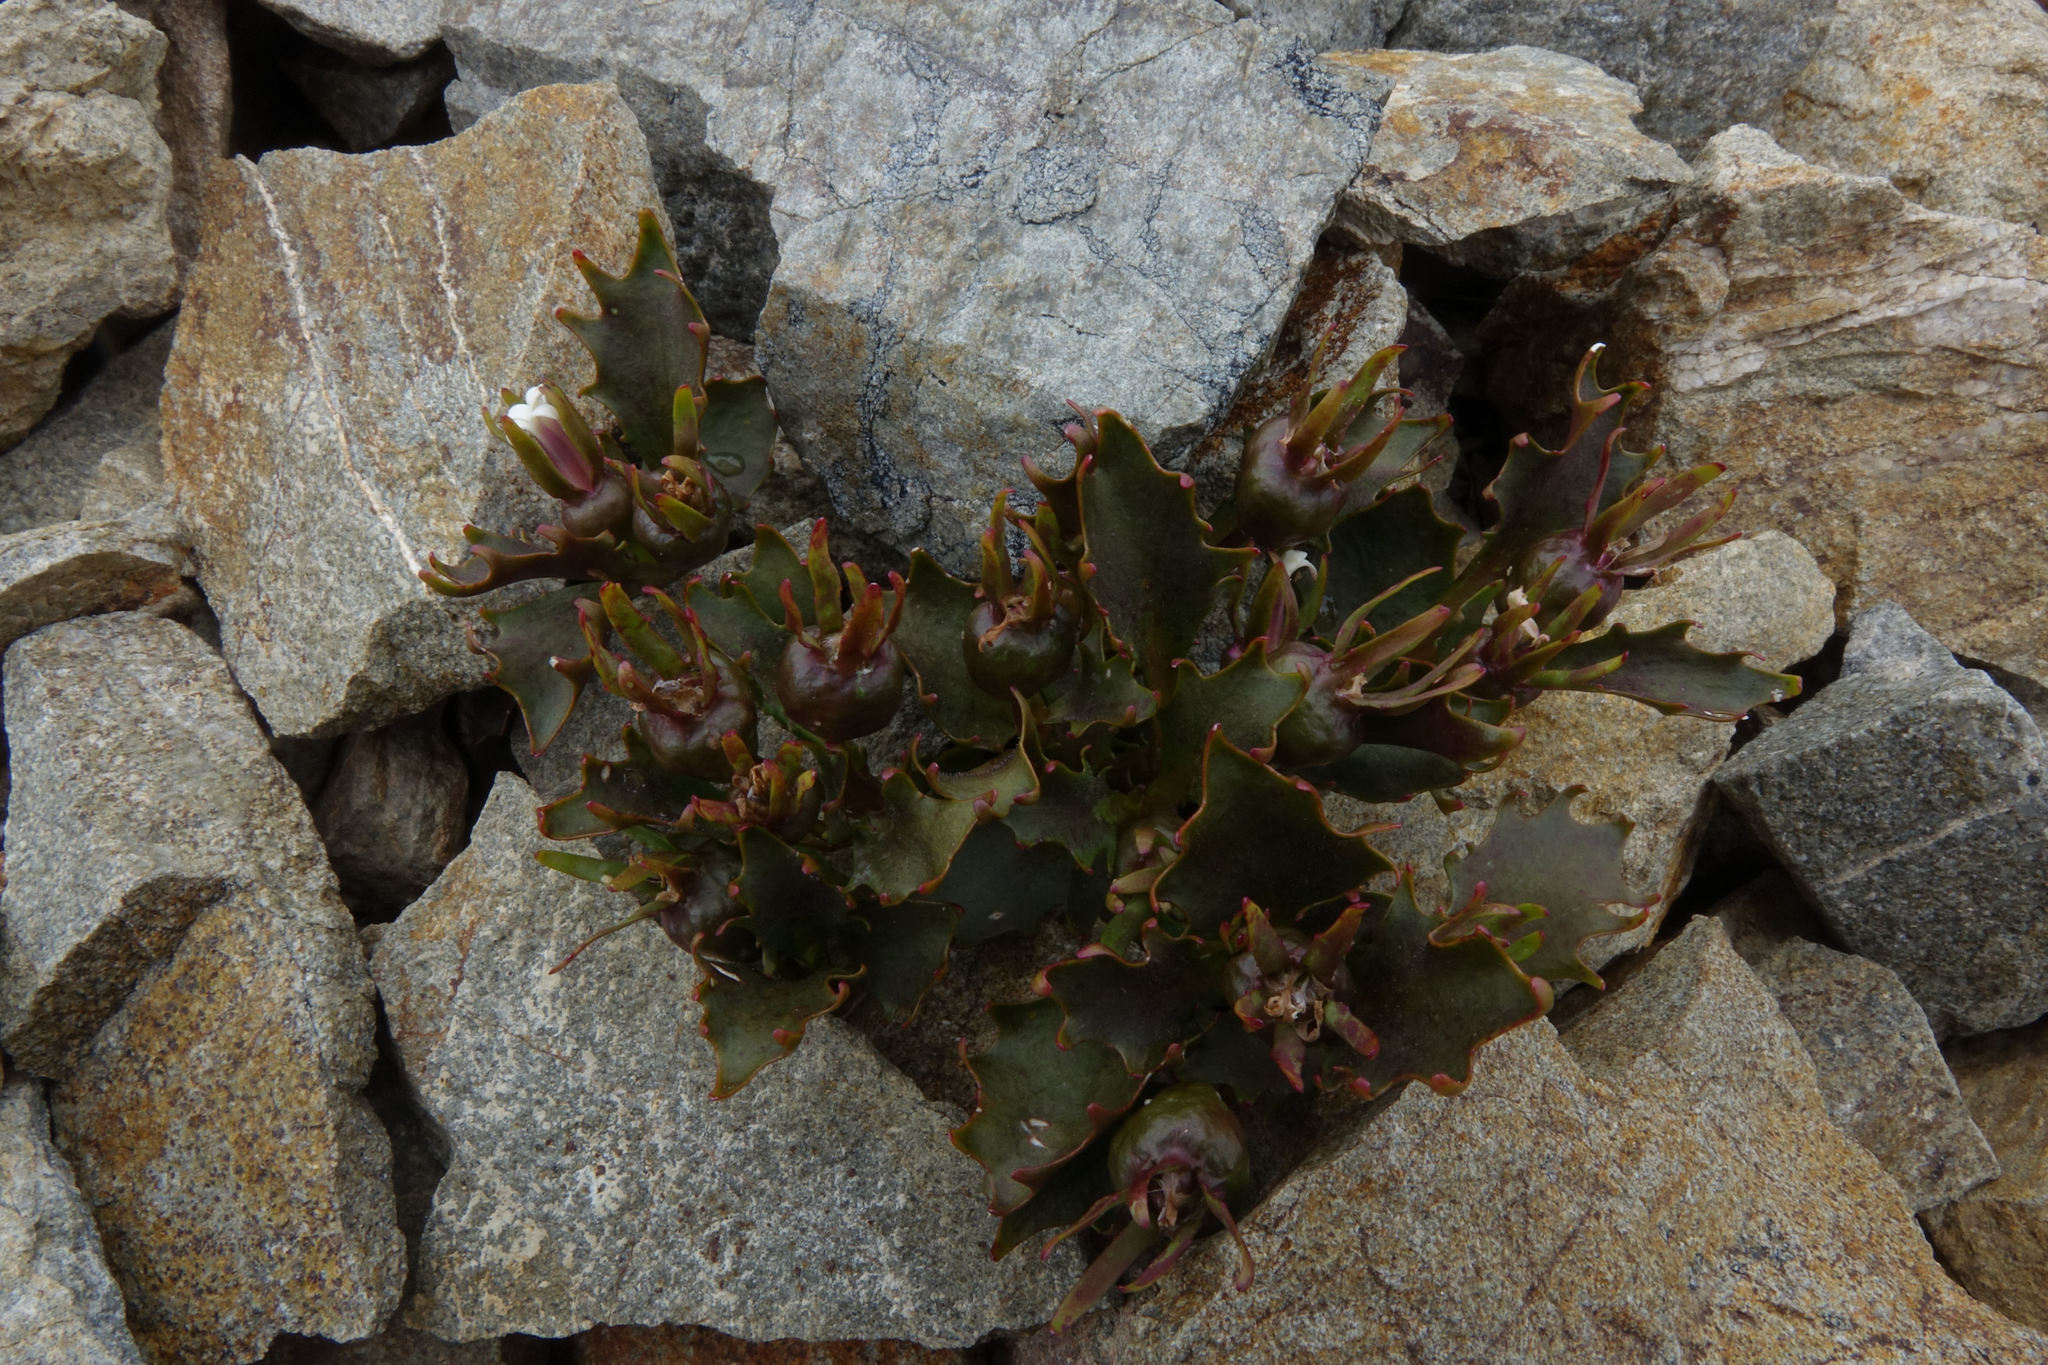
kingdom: Plantae
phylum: Tracheophyta
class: Magnoliopsida
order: Asterales
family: Campanulaceae
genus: Lobelia
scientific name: Lobelia roughii
